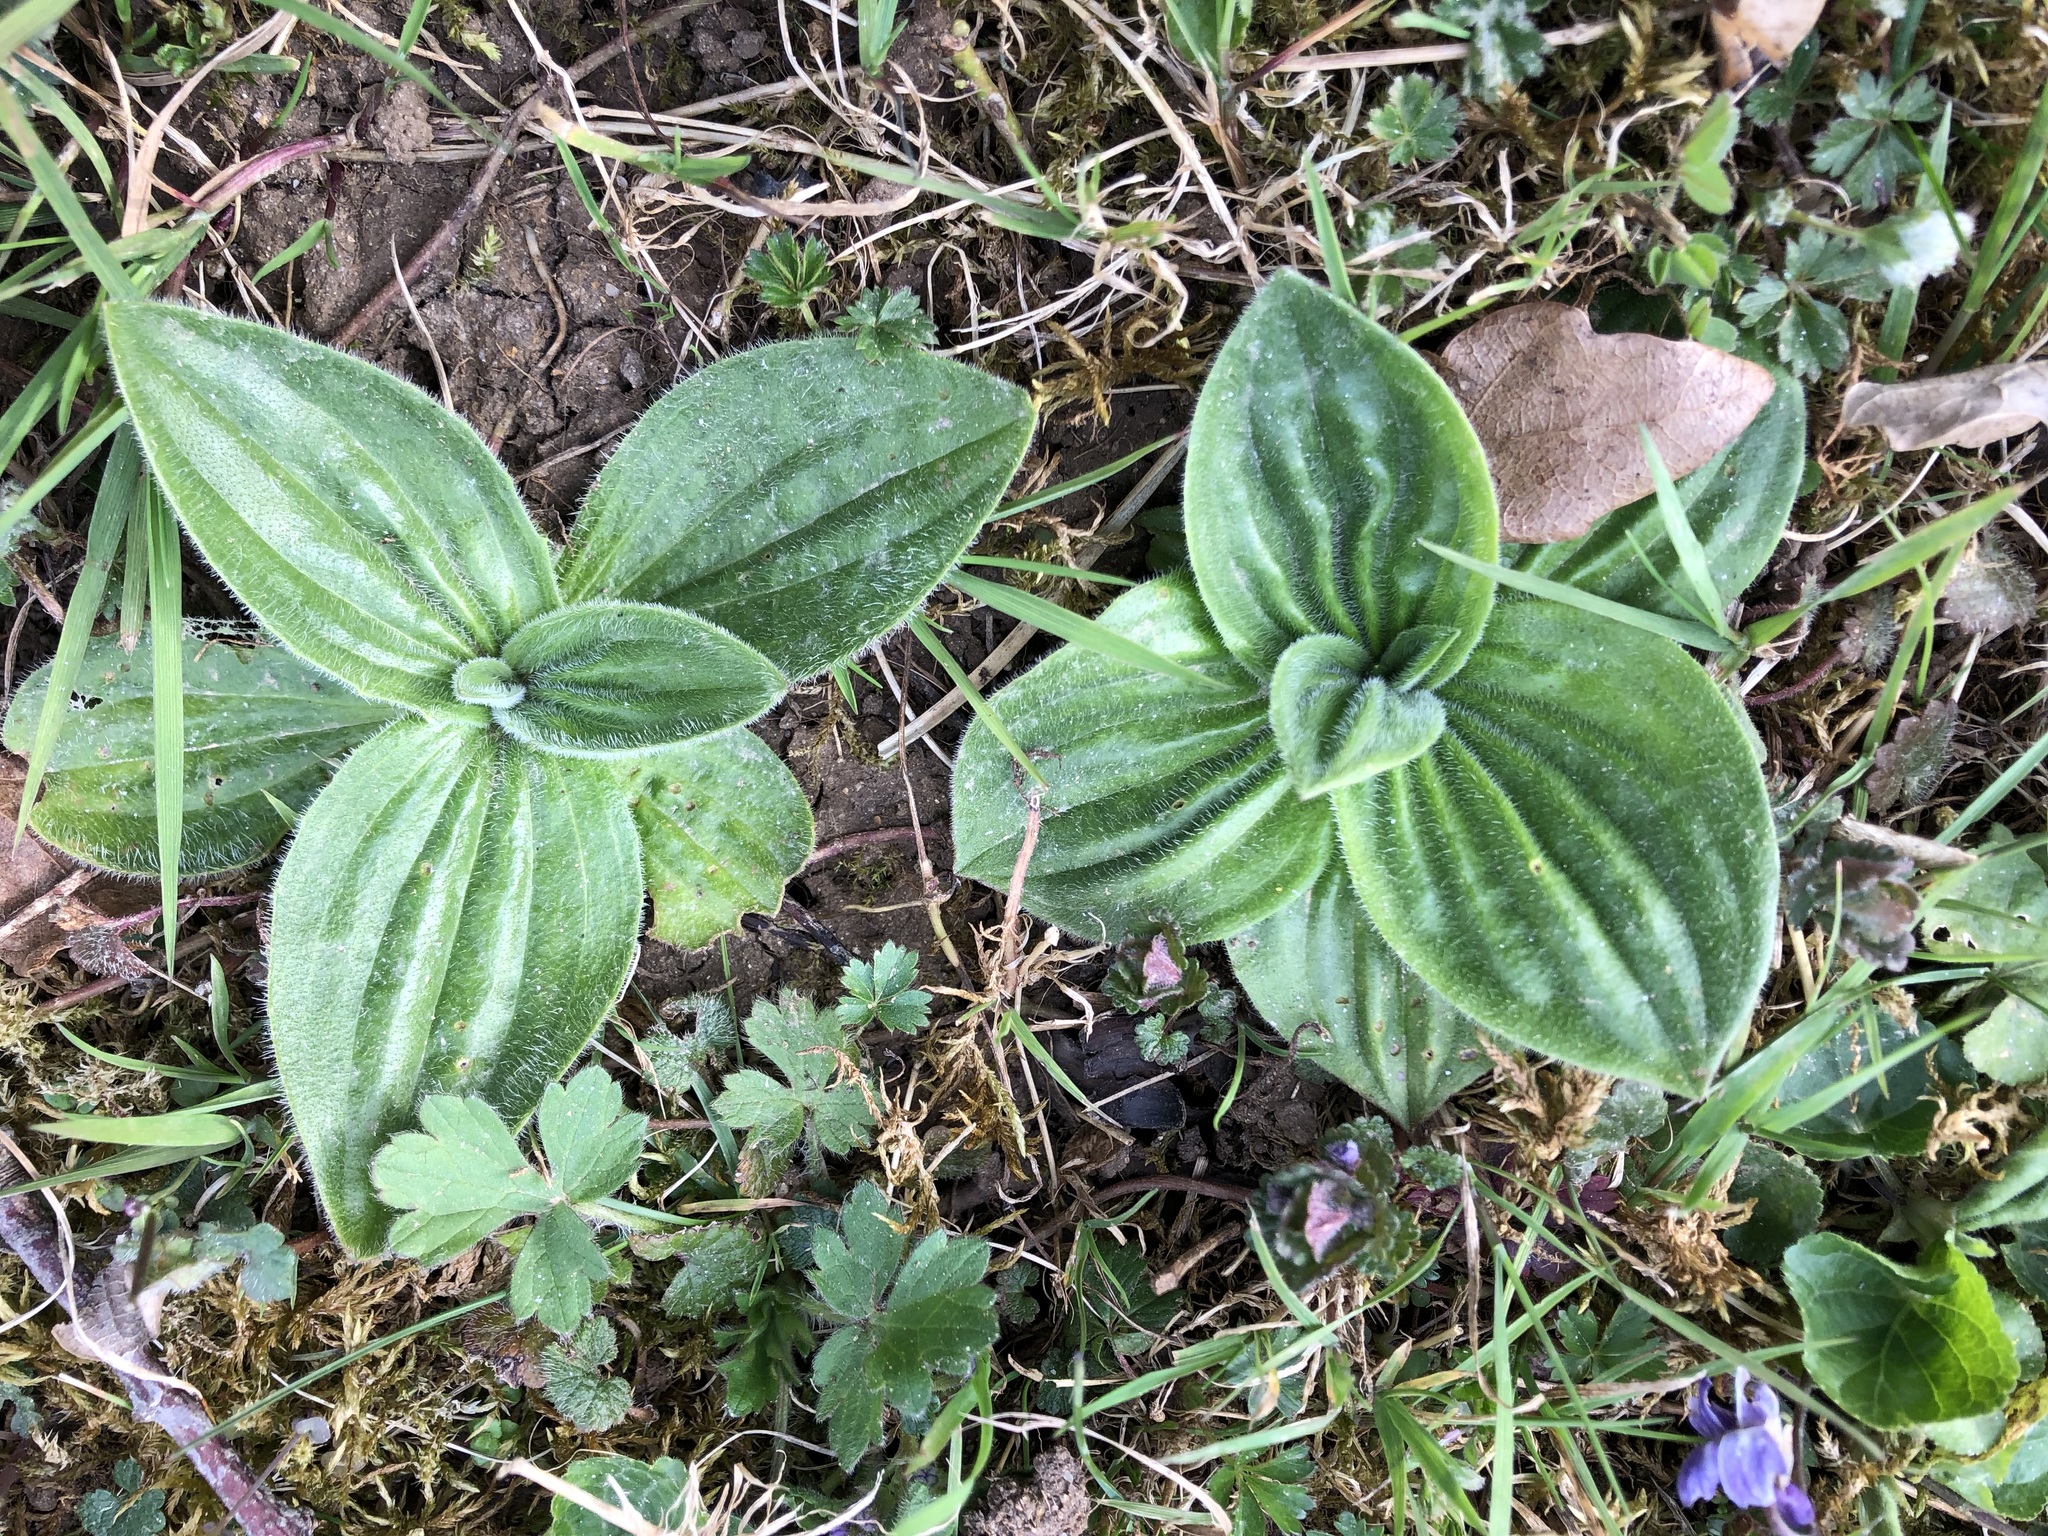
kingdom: Plantae
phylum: Tracheophyta
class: Magnoliopsida
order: Lamiales
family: Plantaginaceae
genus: Plantago
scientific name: Plantago media
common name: Hoary plantain
